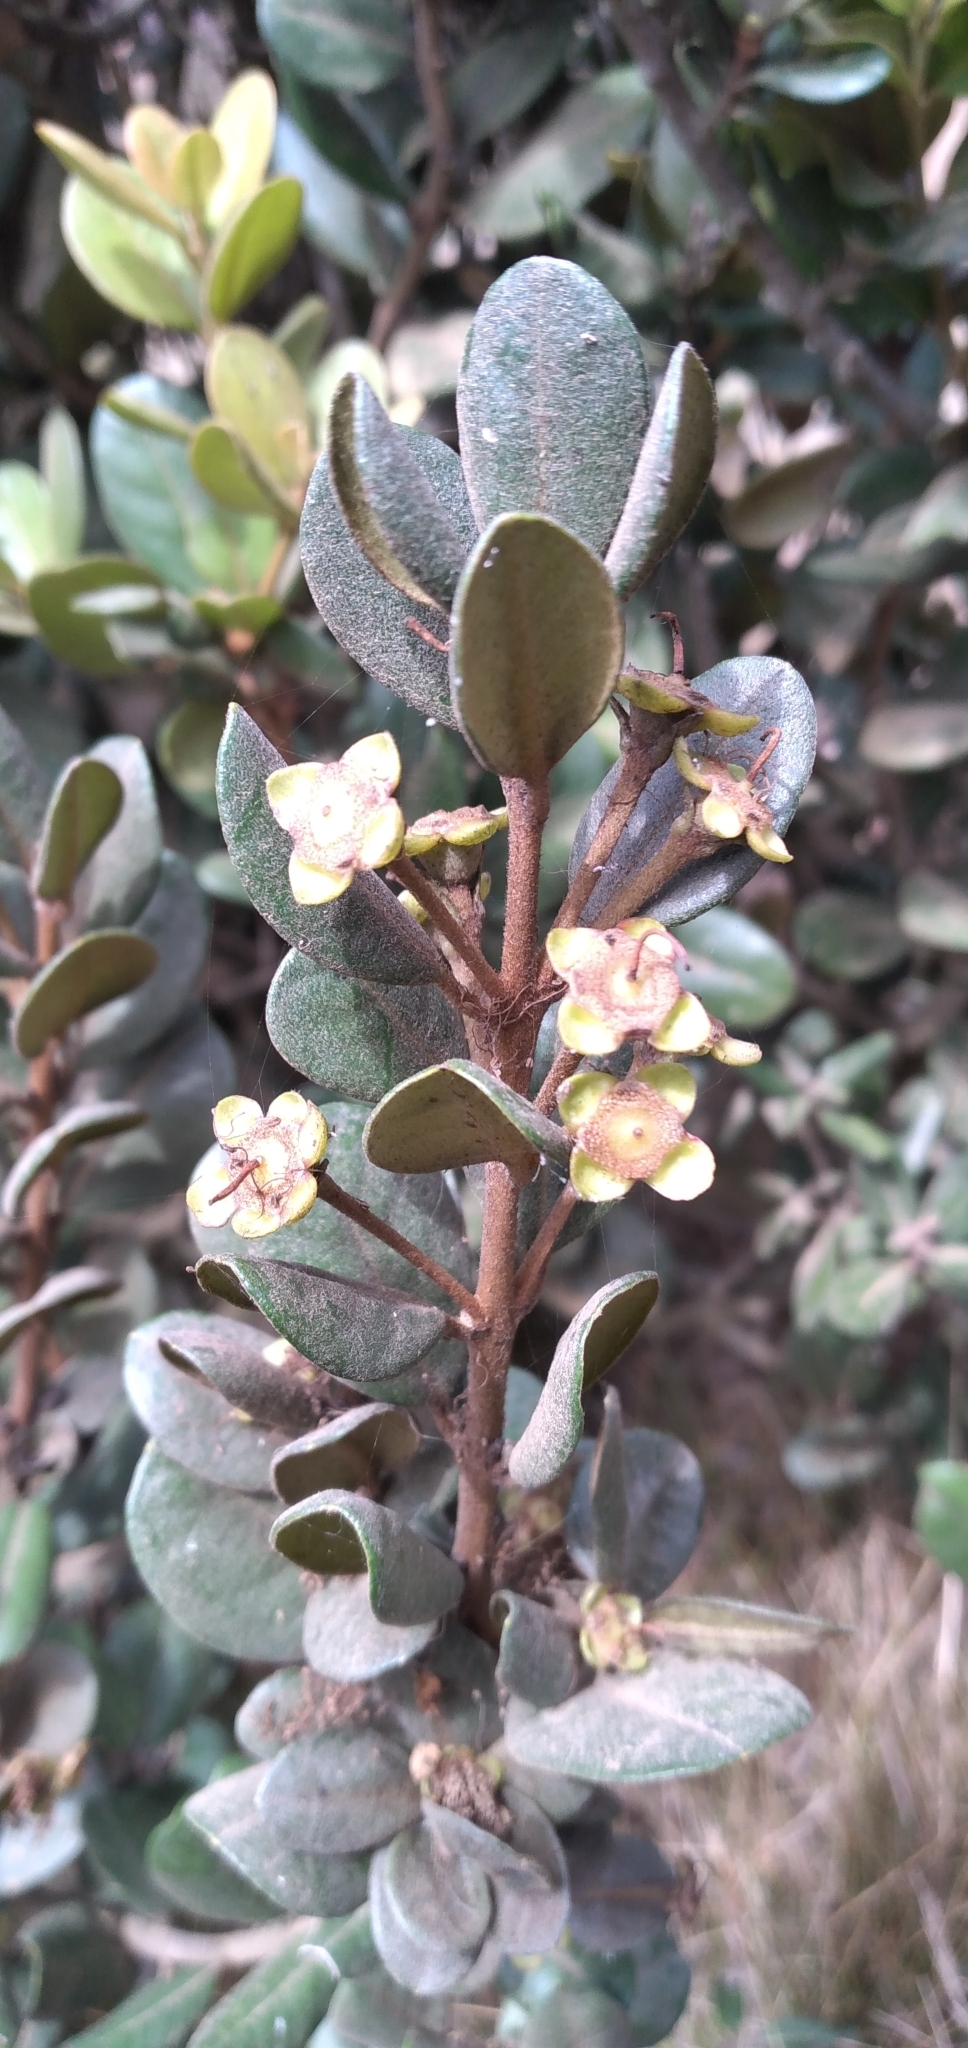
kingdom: Plantae
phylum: Tracheophyta
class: Magnoliopsida
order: Myrtales
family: Myrtaceae
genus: Myrceugenia
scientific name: Myrceugenia correifolia
